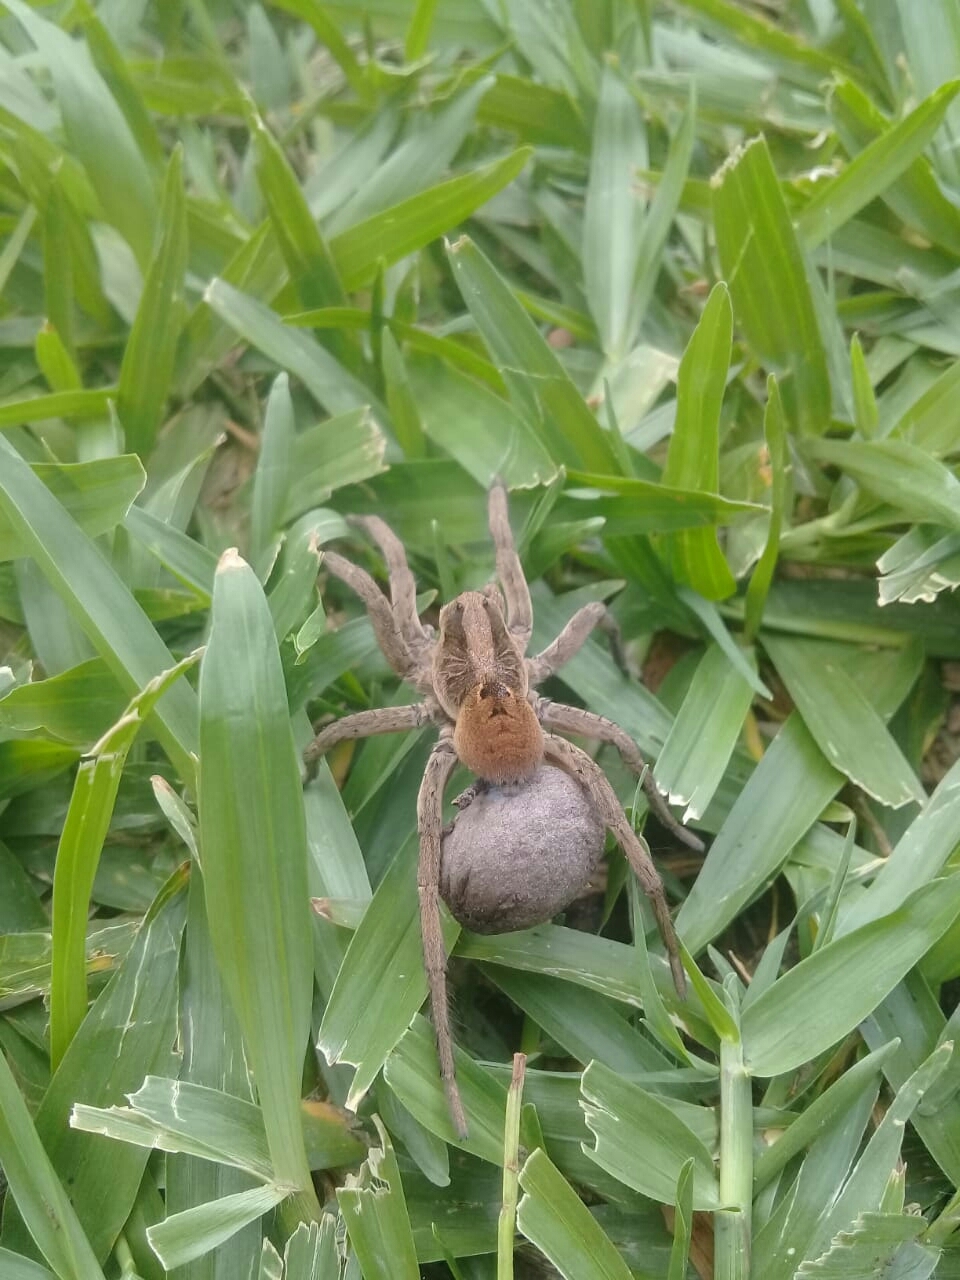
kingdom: Animalia
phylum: Arthropoda
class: Arachnida
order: Araneae
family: Lycosidae
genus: Lycosa
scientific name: Lycosa erythrognatha
